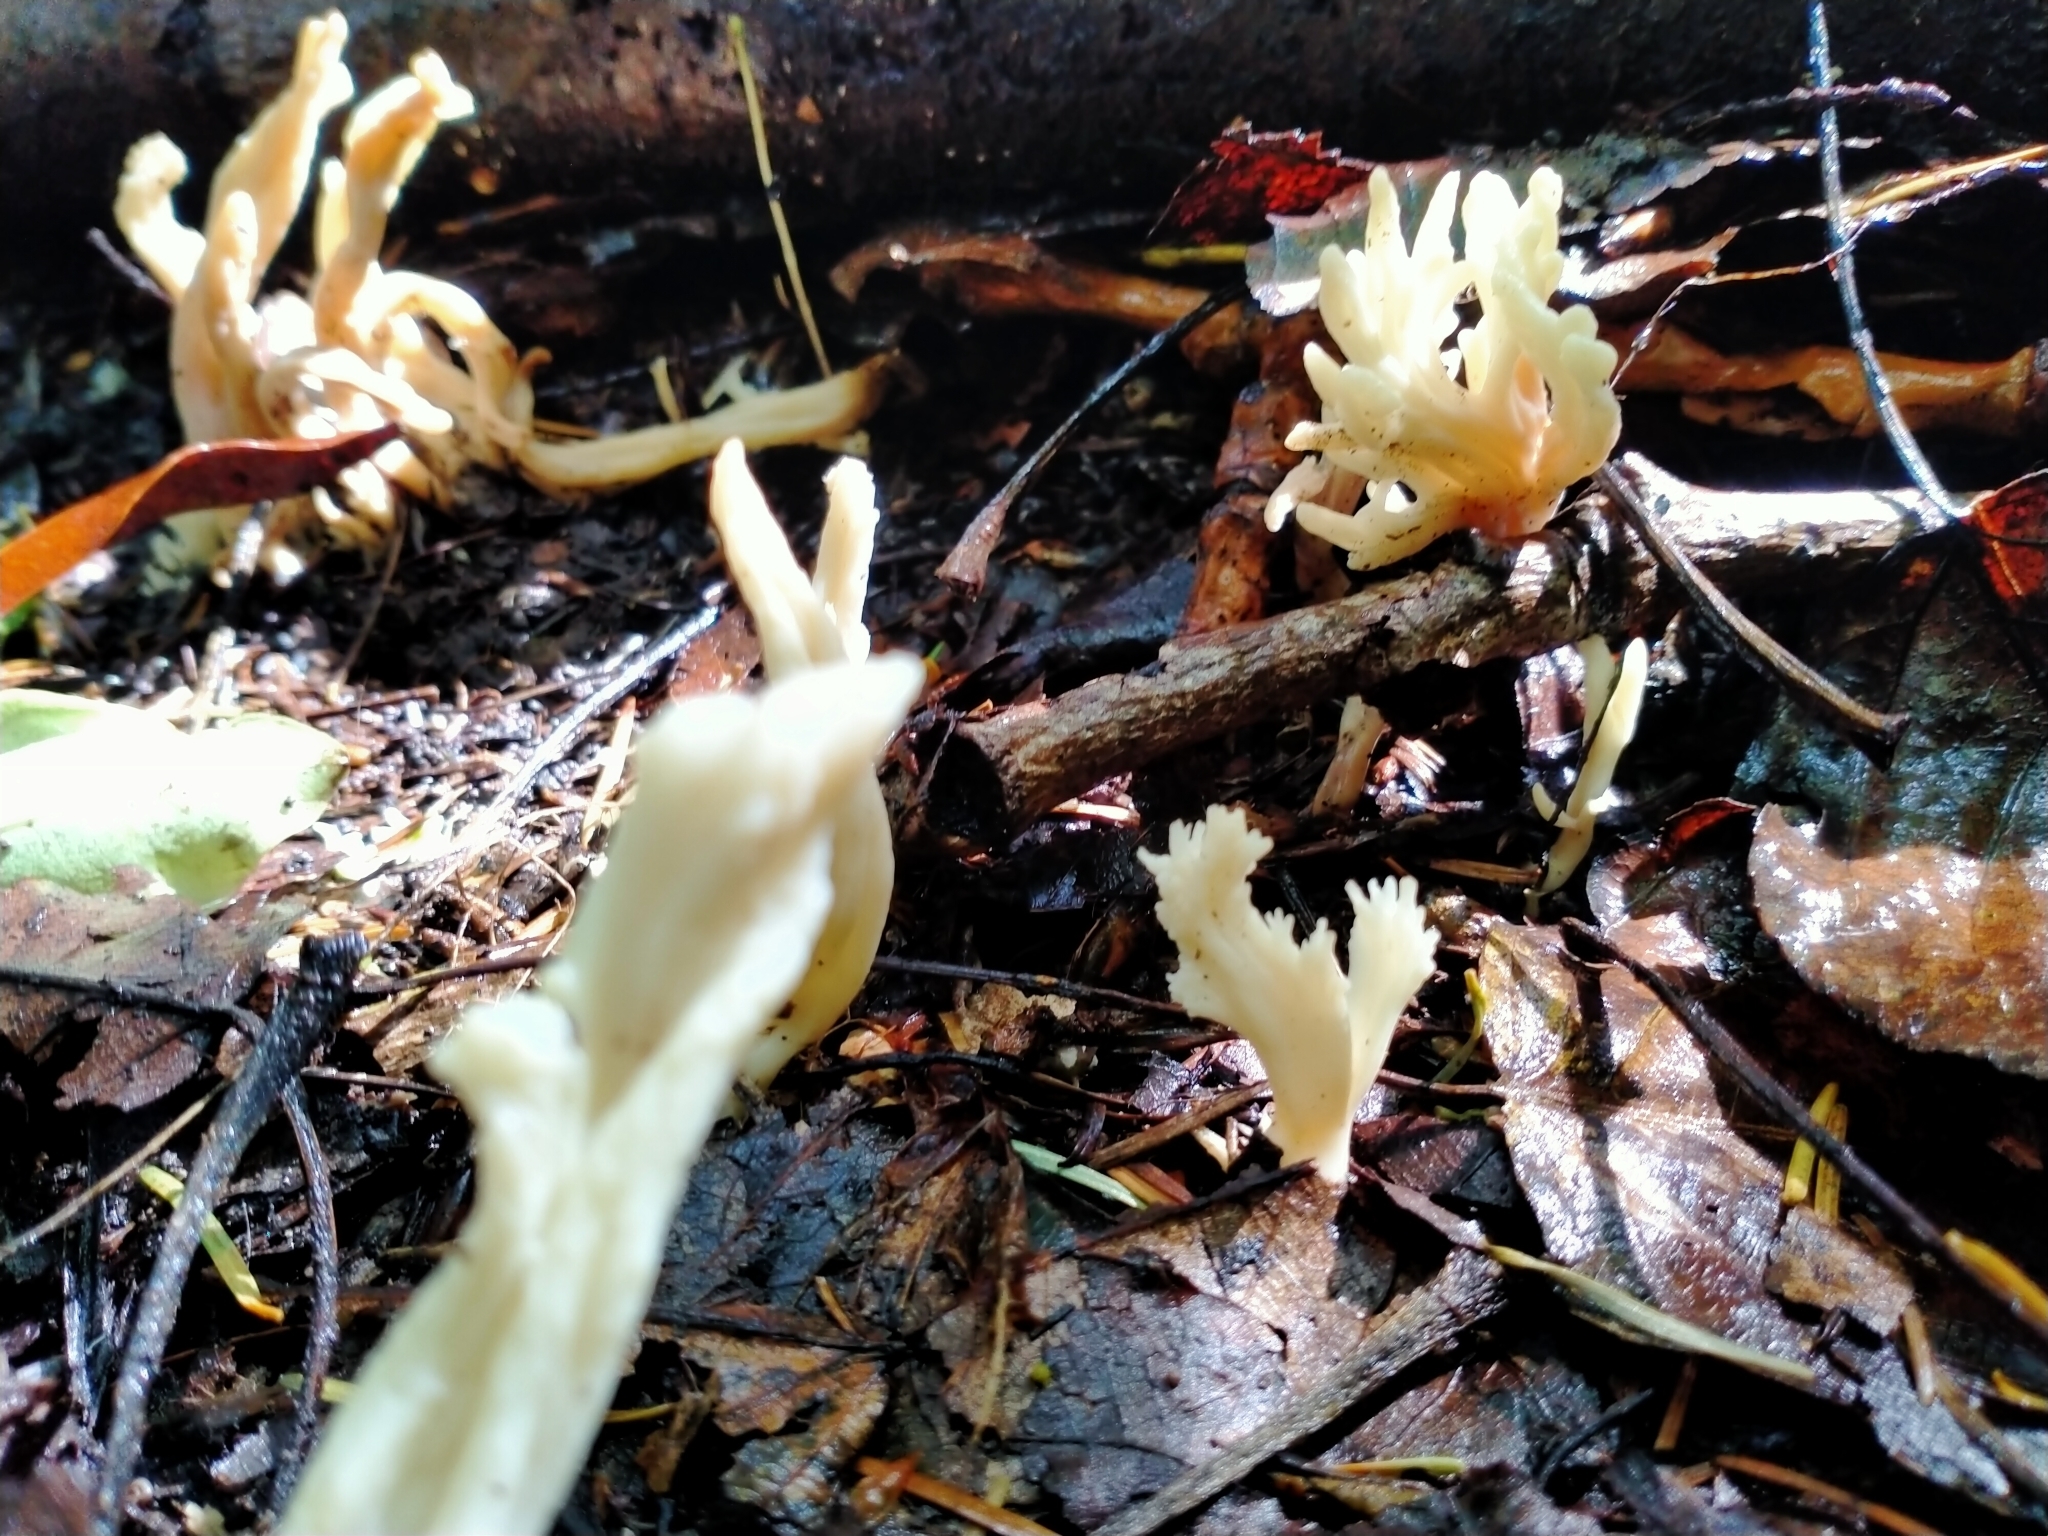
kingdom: Fungi
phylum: Basidiomycota
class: Agaricomycetes
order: Cantharellales
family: Hydnaceae
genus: Clavulina
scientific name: Clavulina
